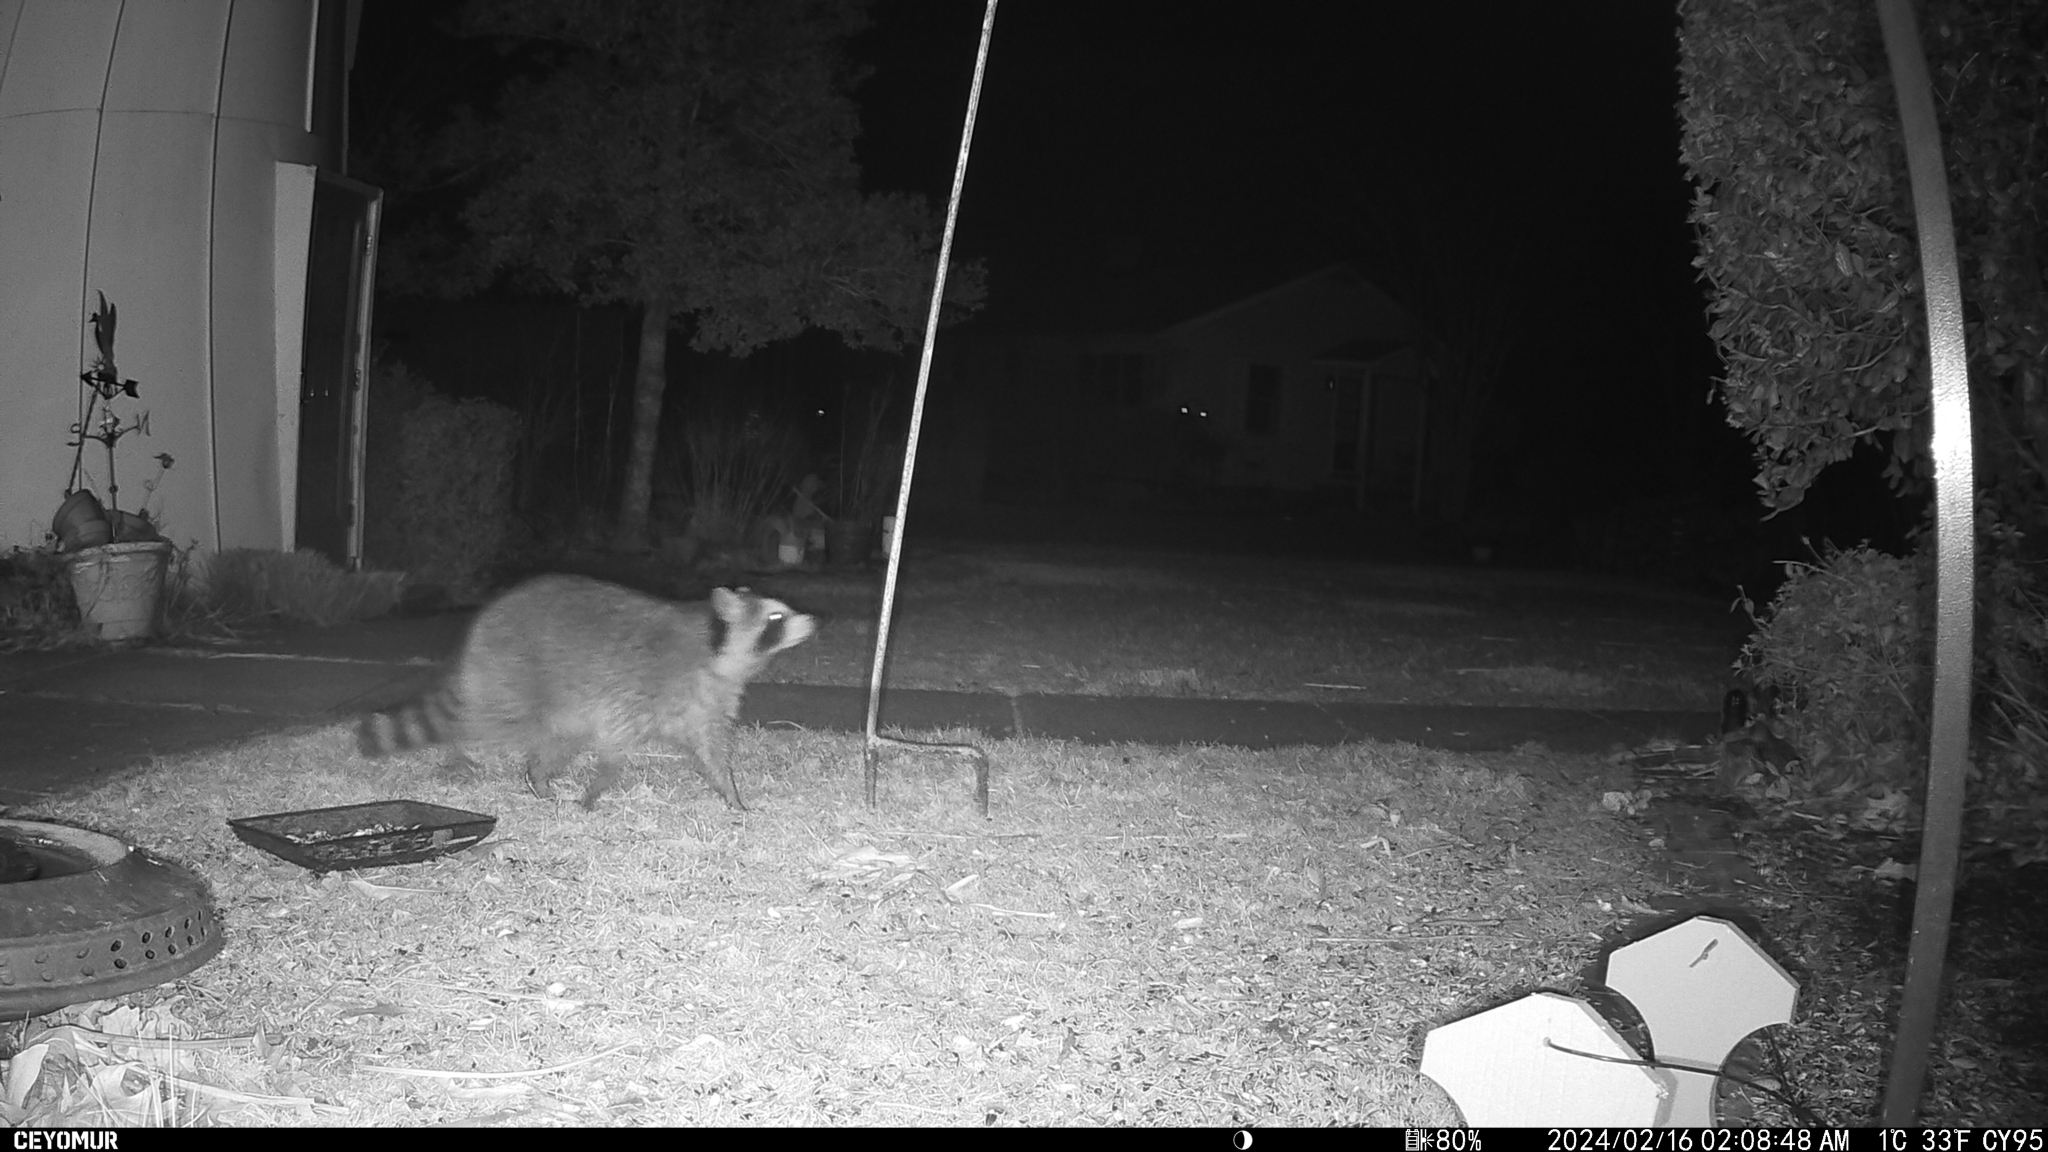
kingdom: Animalia
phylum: Chordata
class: Mammalia
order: Carnivora
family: Procyonidae
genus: Procyon
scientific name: Procyon lotor
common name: Raccoon
